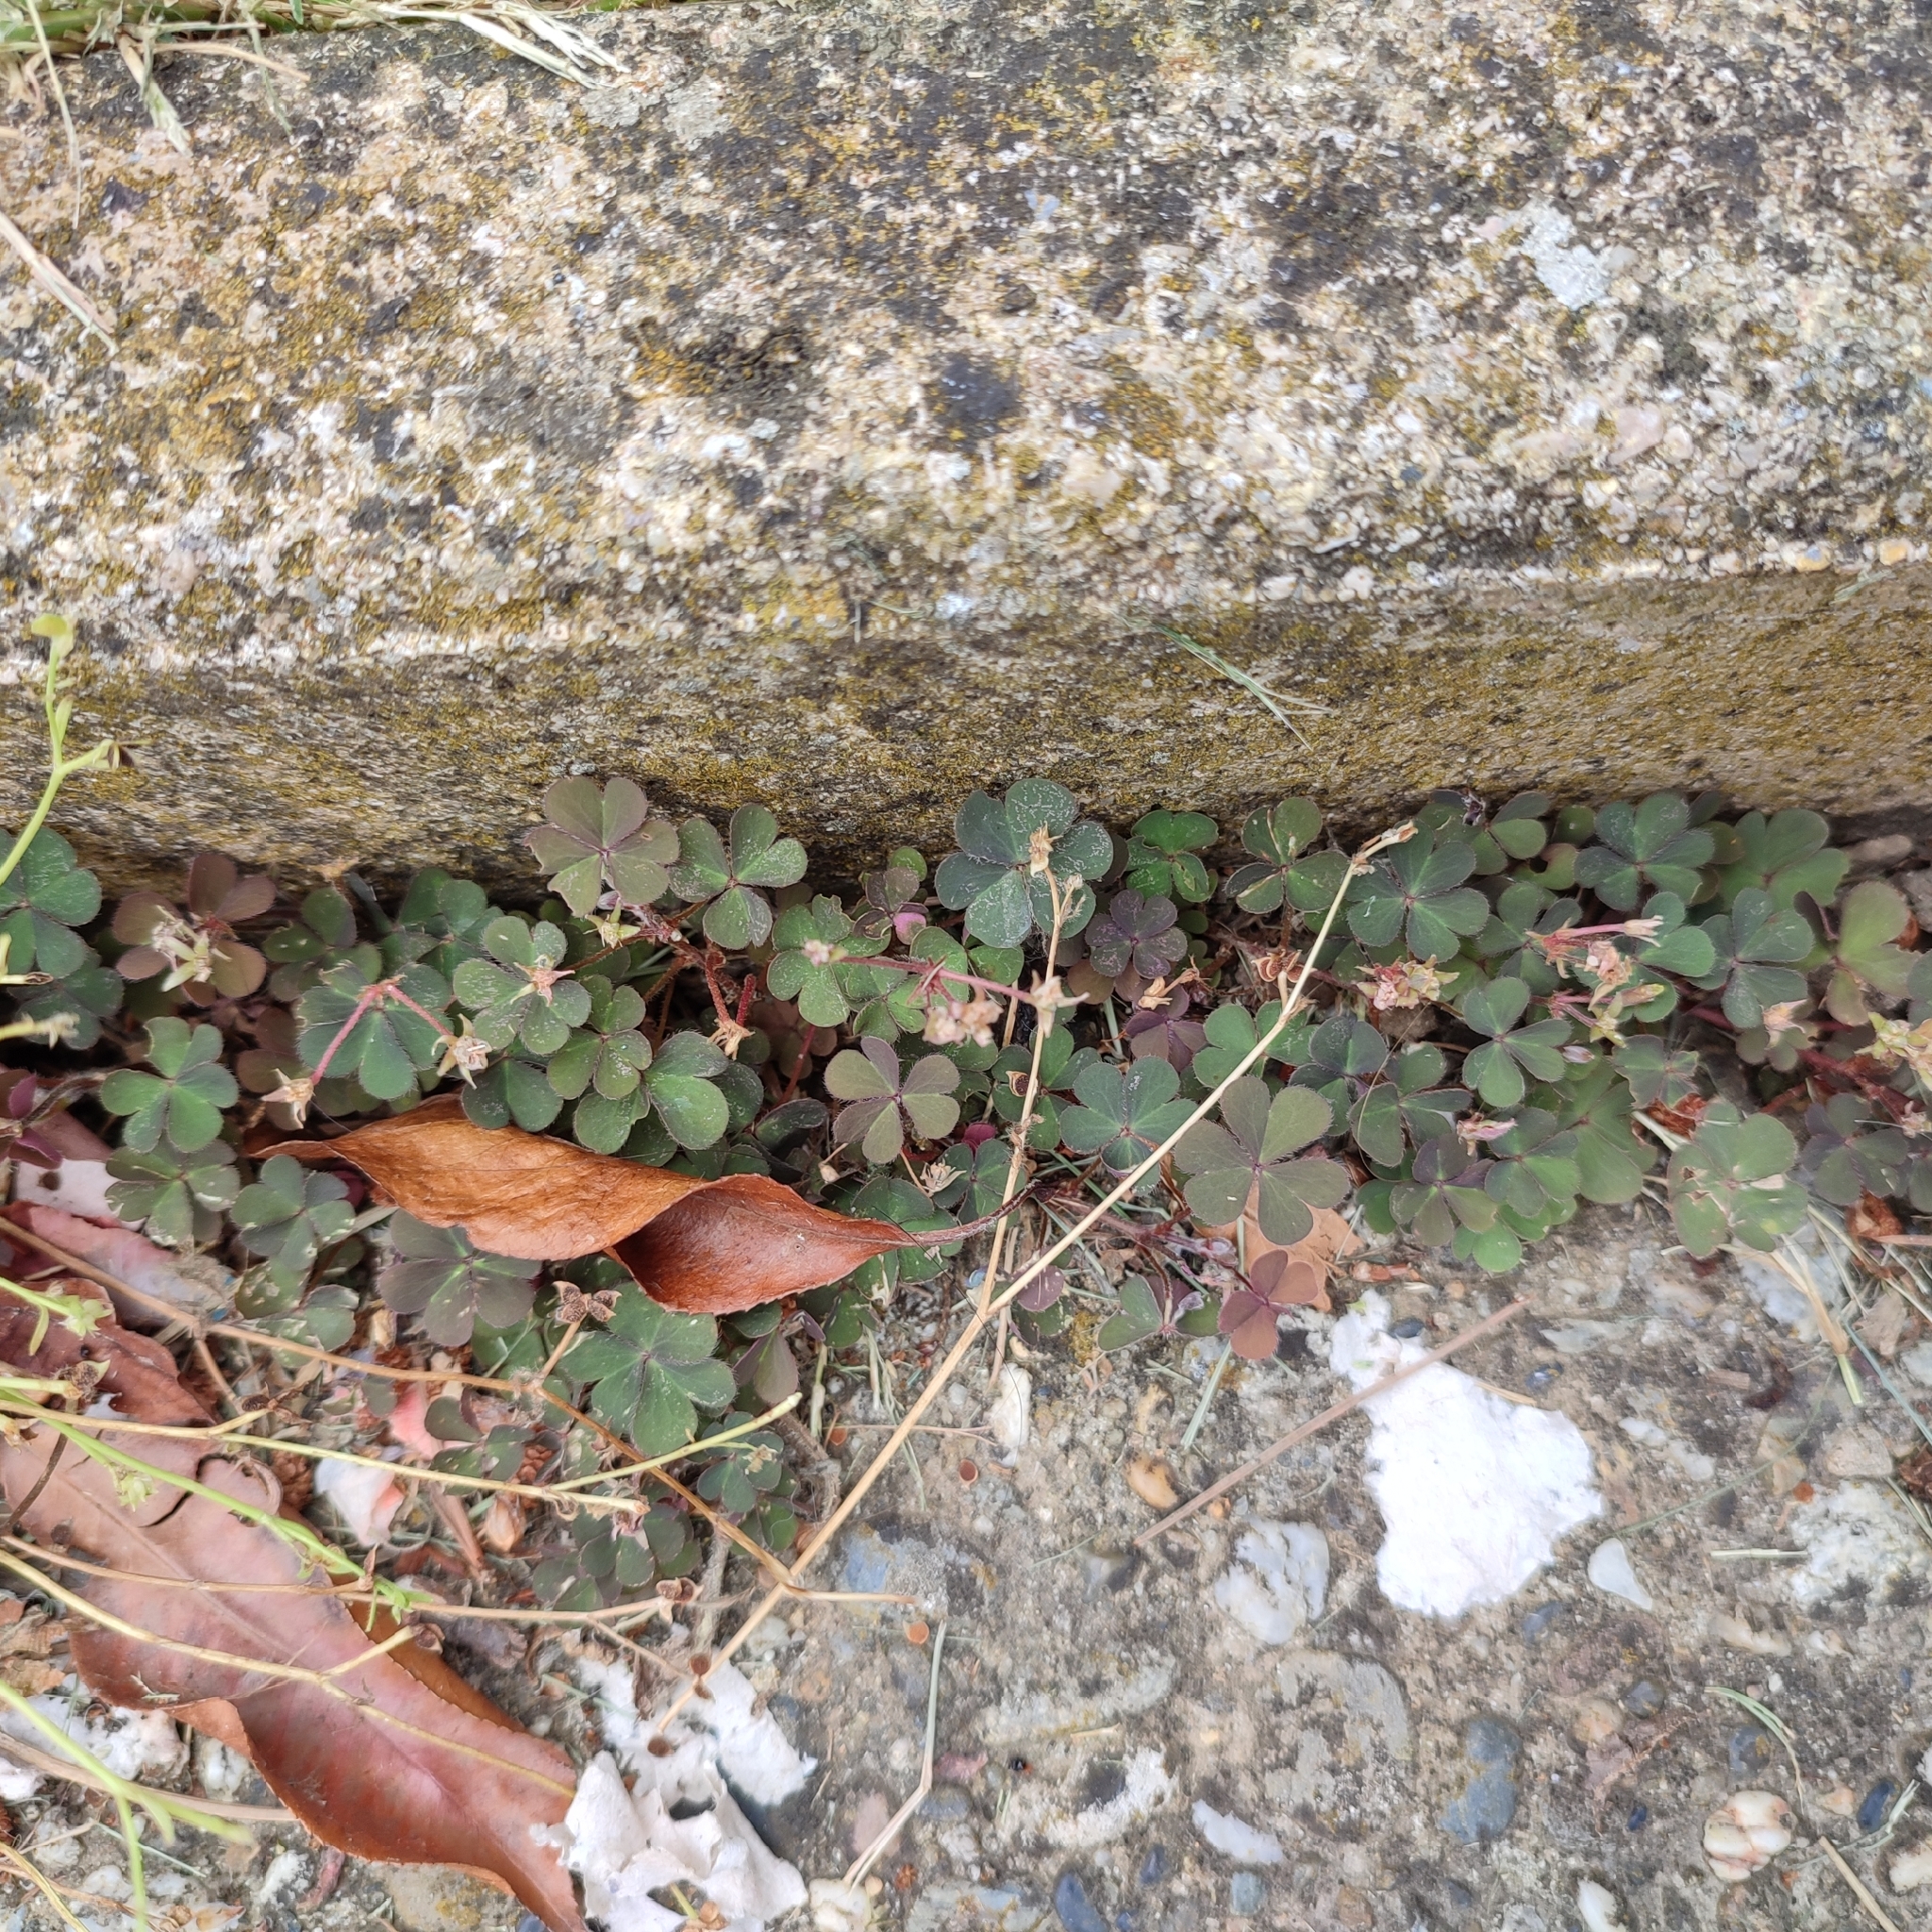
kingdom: Plantae
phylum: Tracheophyta
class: Magnoliopsida
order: Oxalidales
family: Oxalidaceae
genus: Oxalis
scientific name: Oxalis corniculata
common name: Procumbent yellow-sorrel
